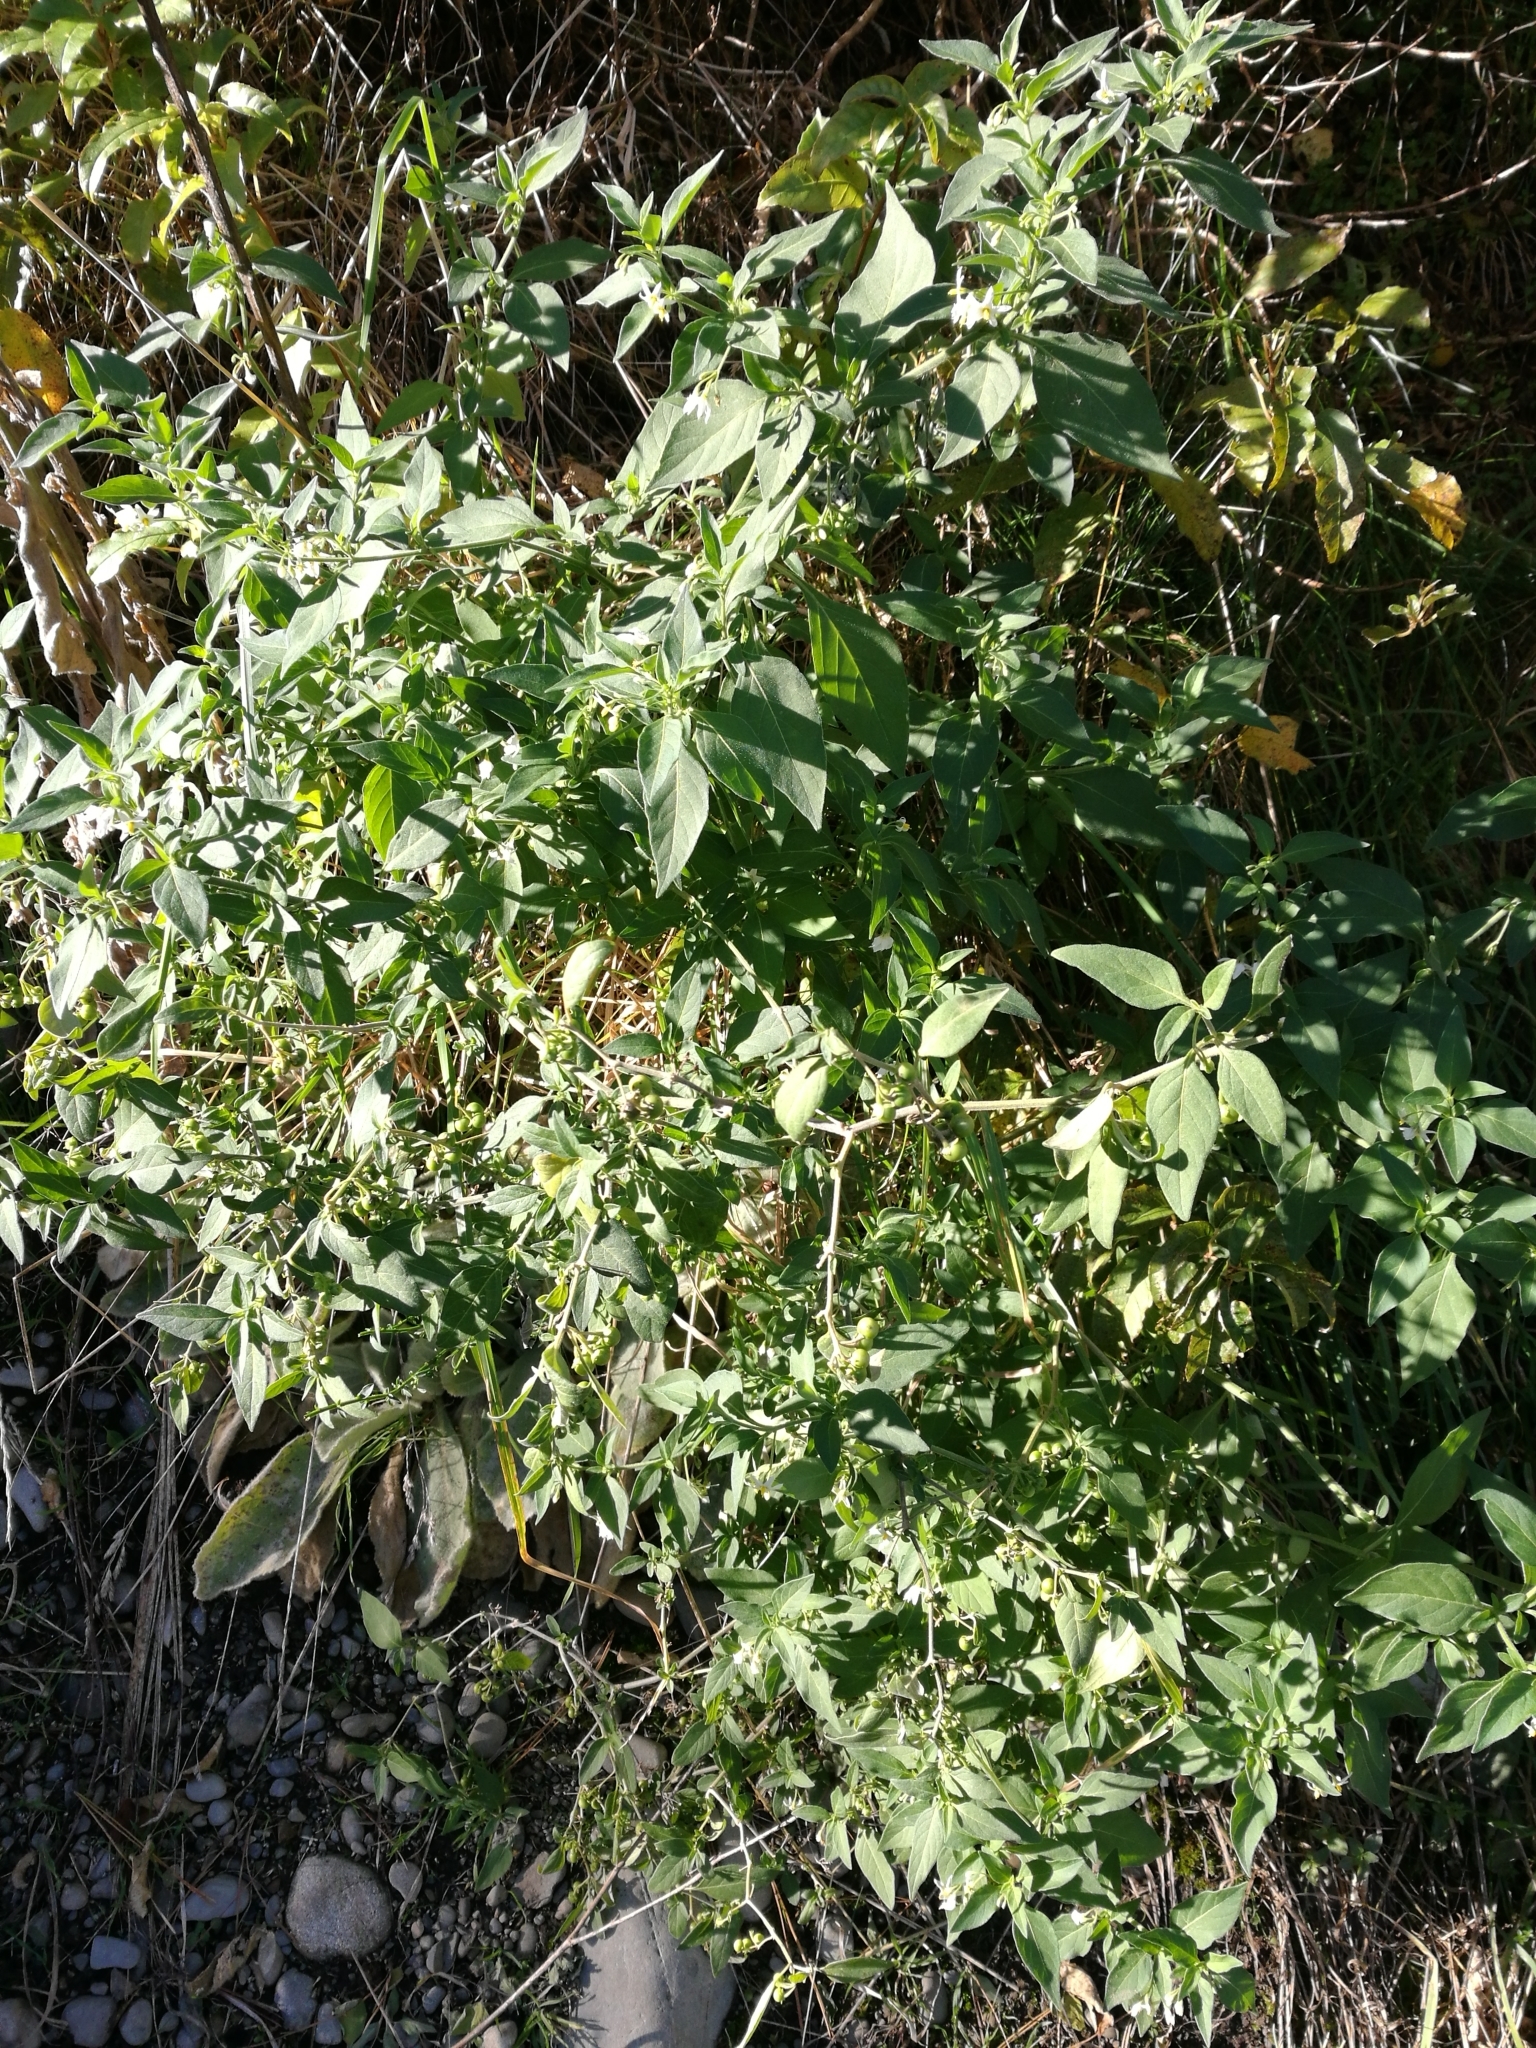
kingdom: Plantae
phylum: Tracheophyta
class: Magnoliopsida
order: Solanales
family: Solanaceae
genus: Solanum
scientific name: Solanum chenopodioides
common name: Tall nightshade
